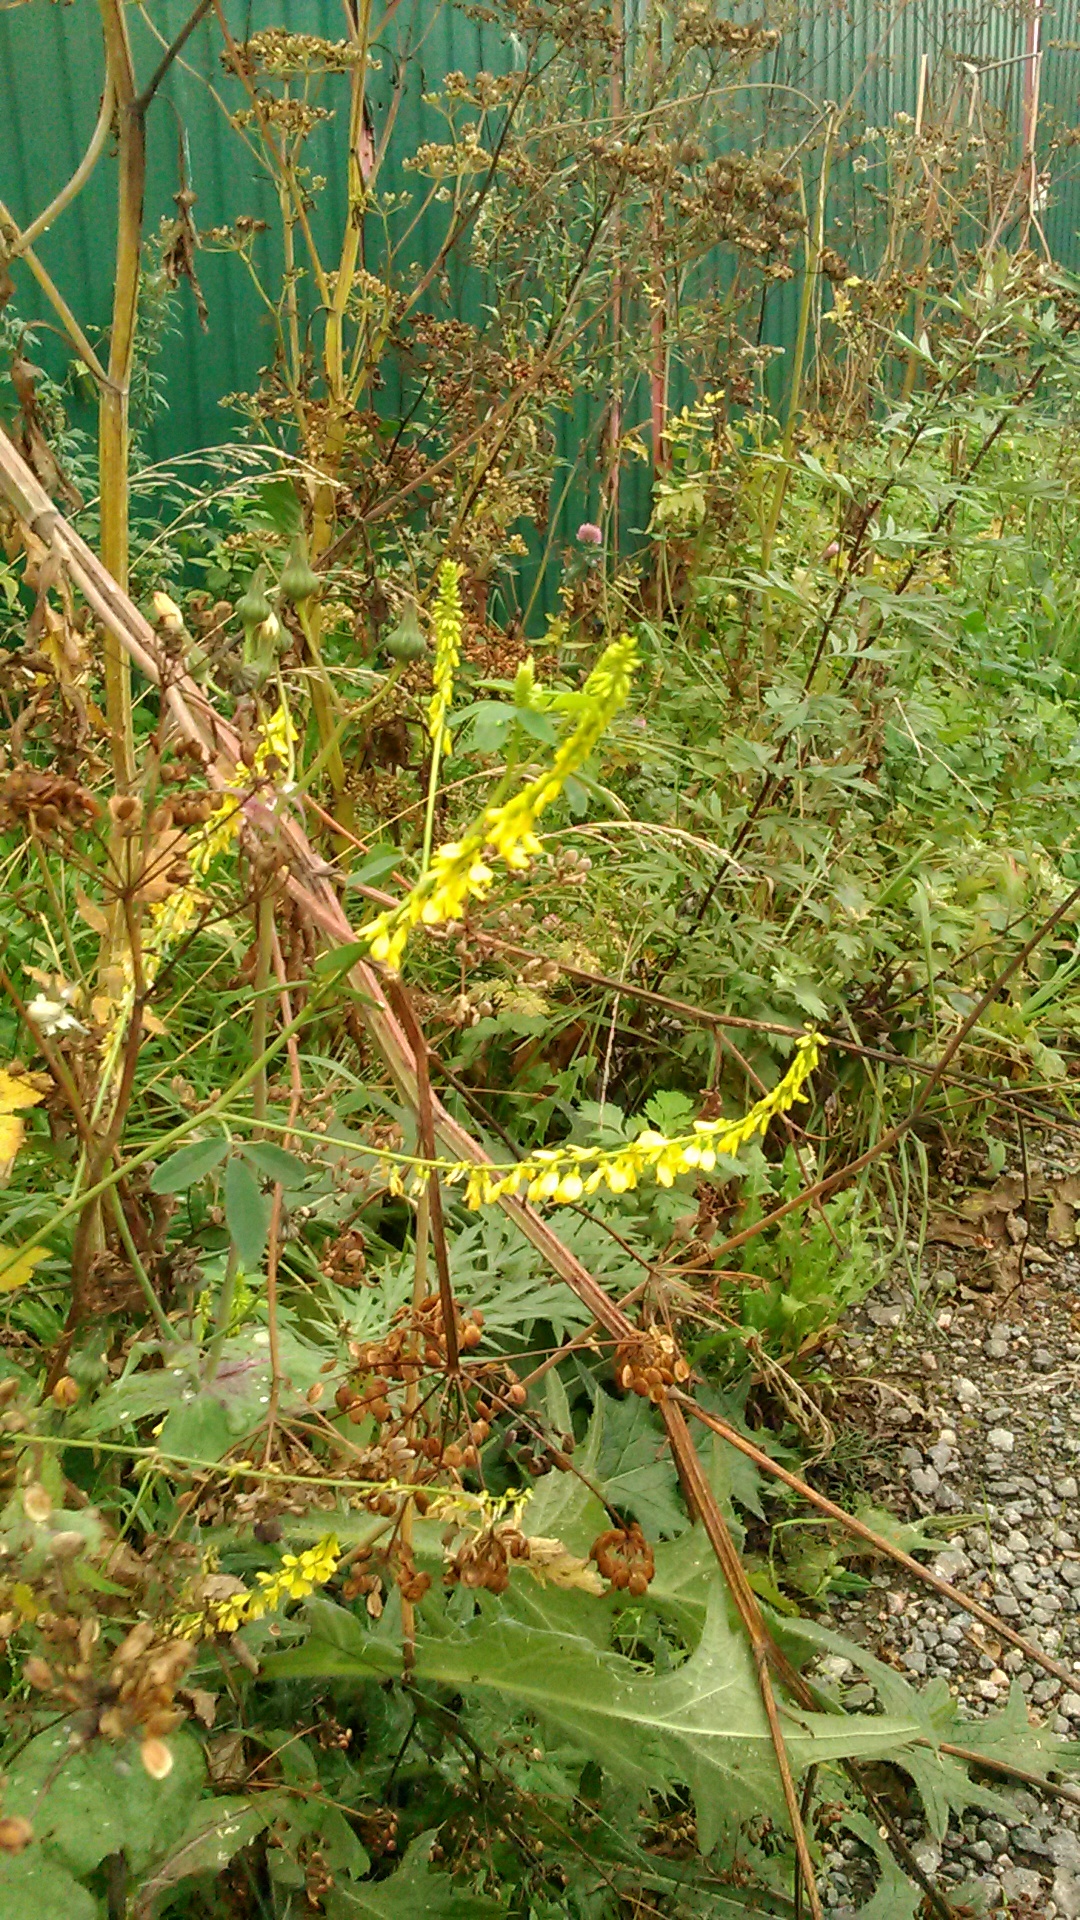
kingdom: Plantae
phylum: Tracheophyta
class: Magnoliopsida
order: Fabales
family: Fabaceae
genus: Melilotus
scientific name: Melilotus officinalis
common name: Sweetclover
